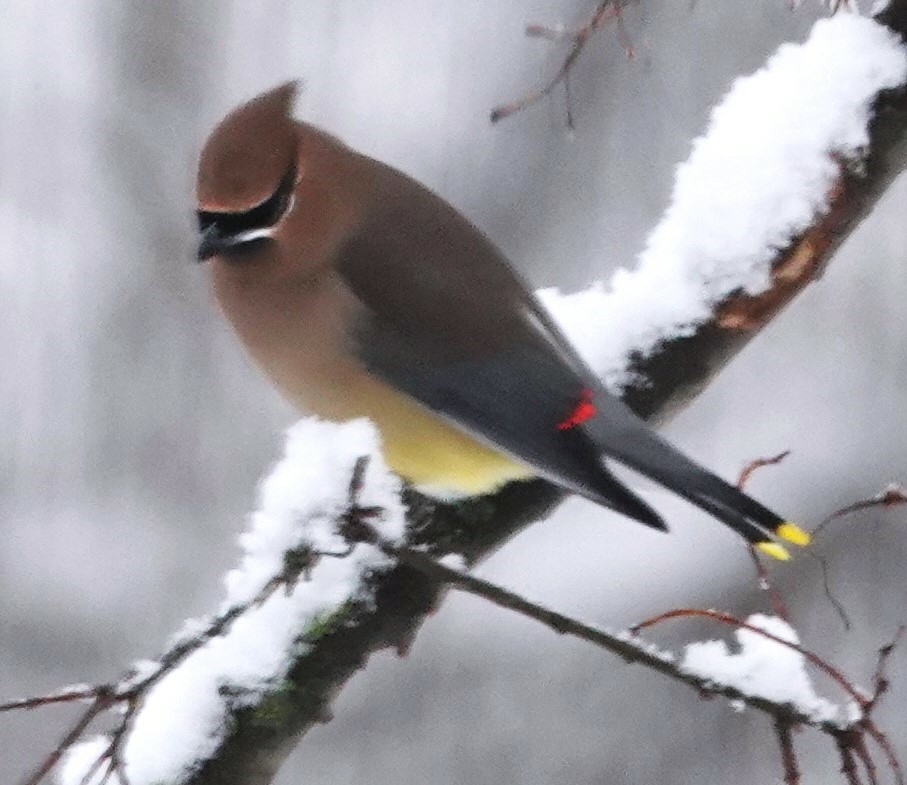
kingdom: Animalia
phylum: Chordata
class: Aves
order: Passeriformes
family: Bombycillidae
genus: Bombycilla
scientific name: Bombycilla cedrorum
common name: Cedar waxwing
